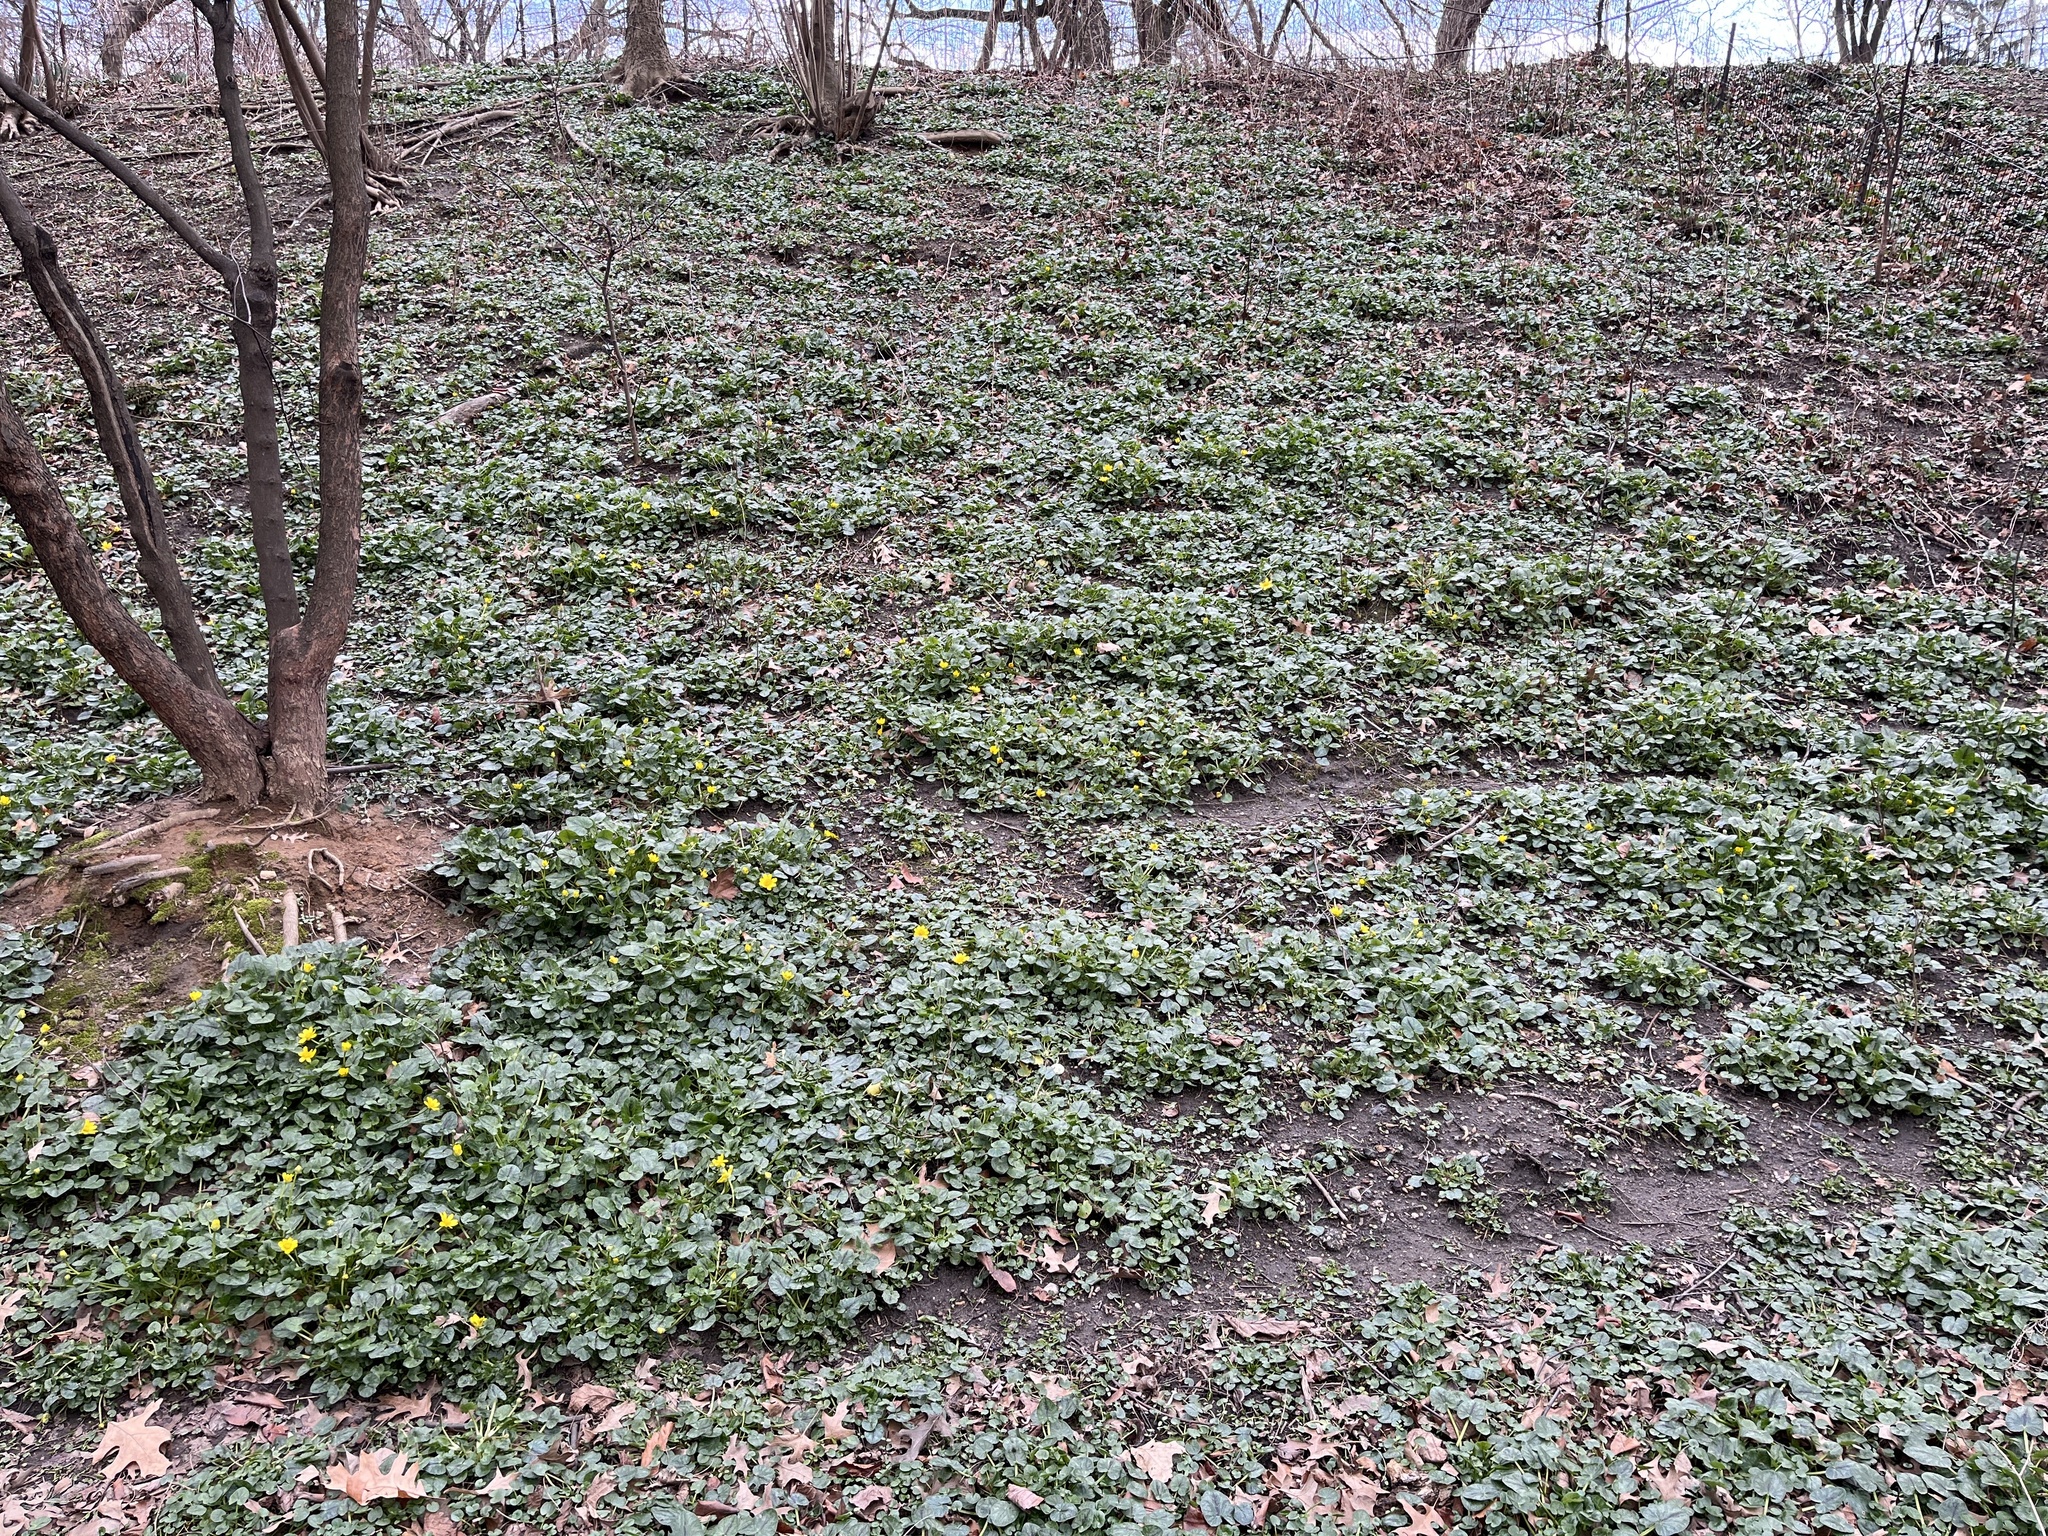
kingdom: Plantae
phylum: Tracheophyta
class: Magnoliopsida
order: Ranunculales
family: Ranunculaceae
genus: Ficaria
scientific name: Ficaria verna
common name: Lesser celandine
